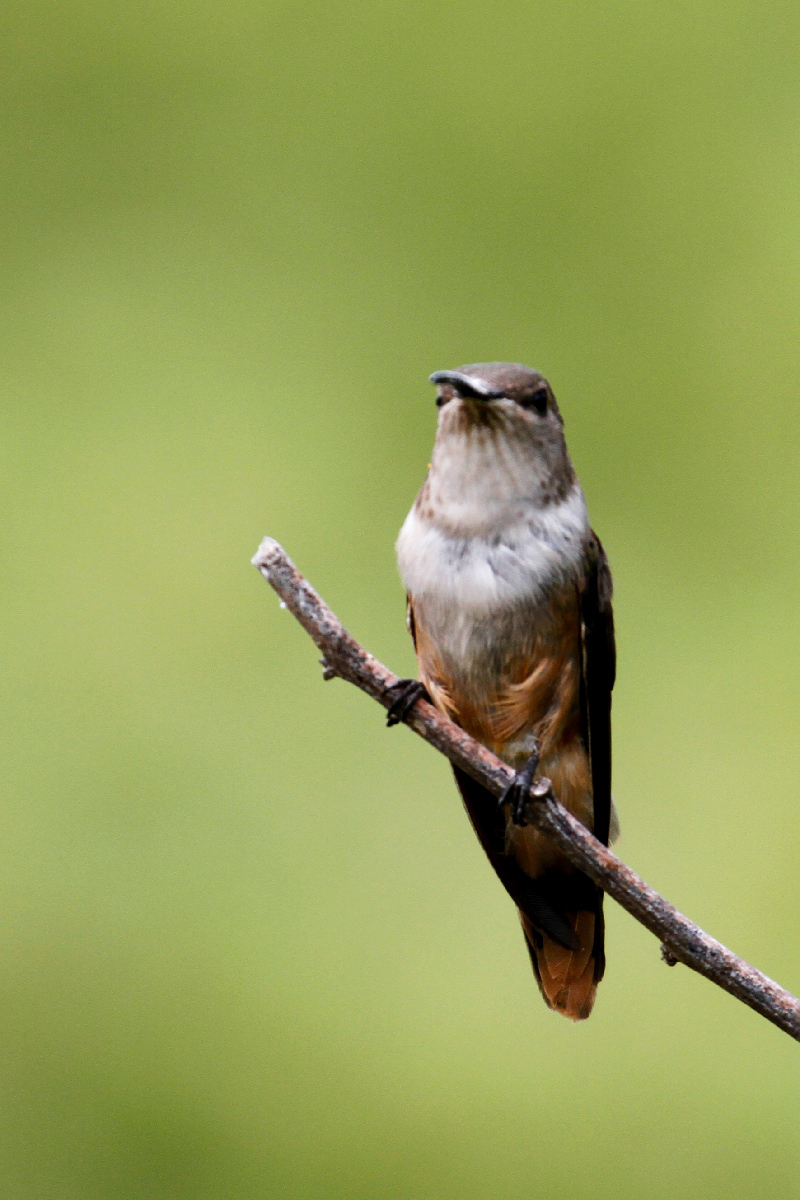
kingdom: Animalia
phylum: Chordata
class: Aves
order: Apodiformes
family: Trochilidae
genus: Nesophlox
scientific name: Nesophlox evelynae
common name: Bahama woodstar
